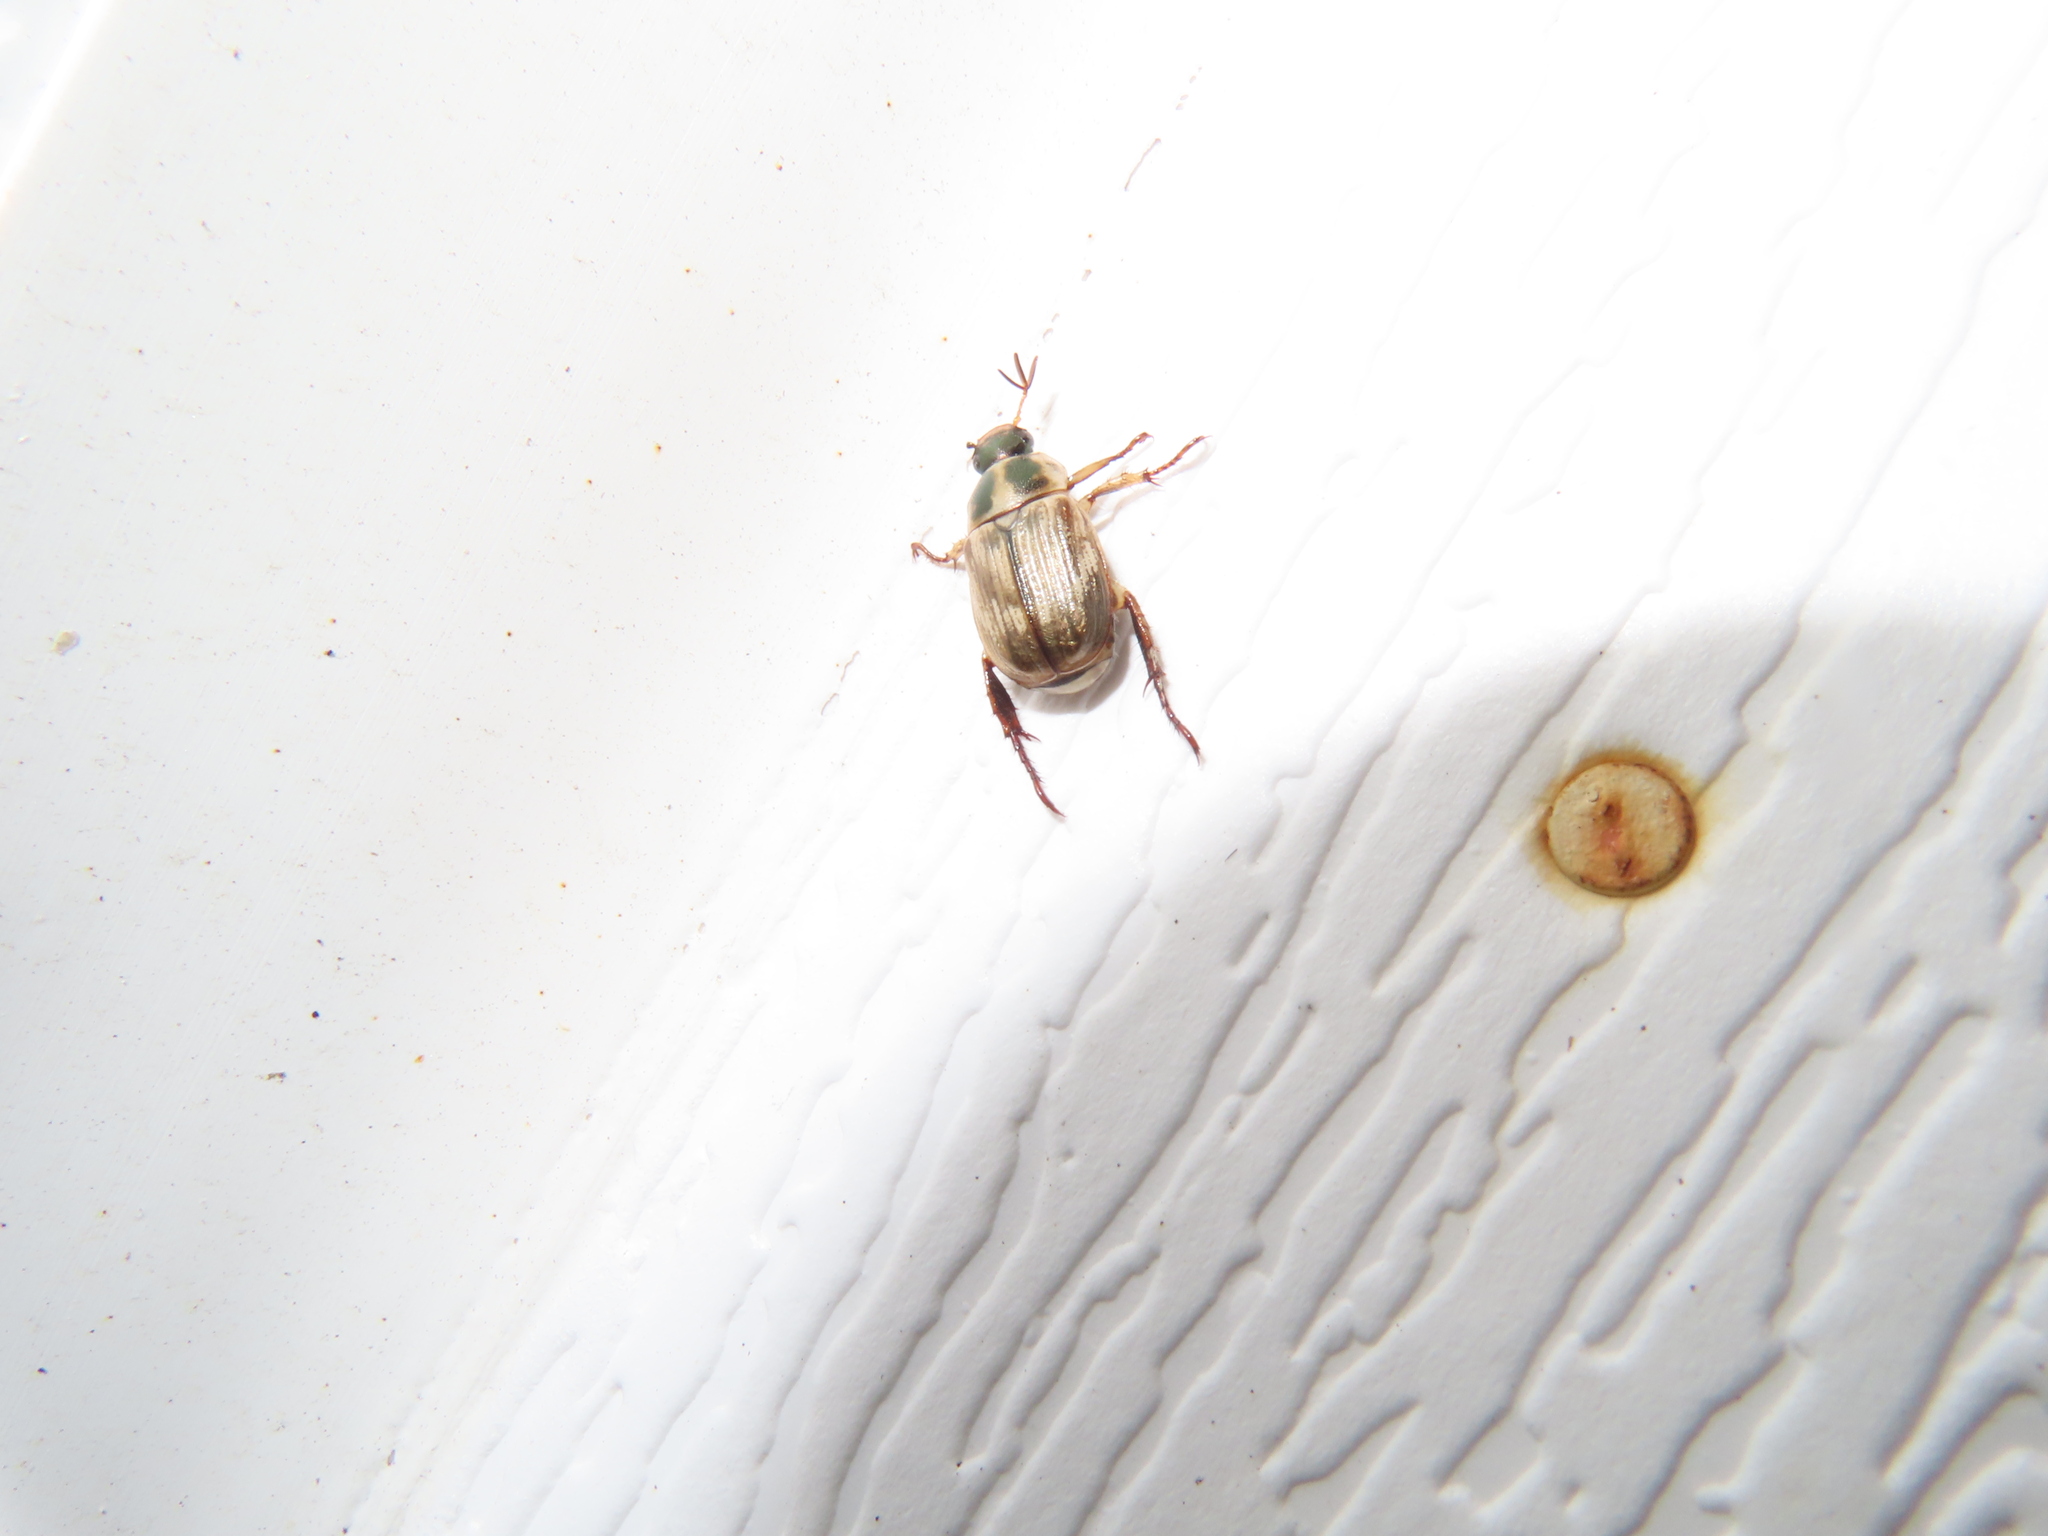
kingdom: Animalia
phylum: Arthropoda
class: Insecta
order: Coleoptera
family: Scarabaeidae
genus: Exomala
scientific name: Exomala orientalis
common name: Oriental beetle
